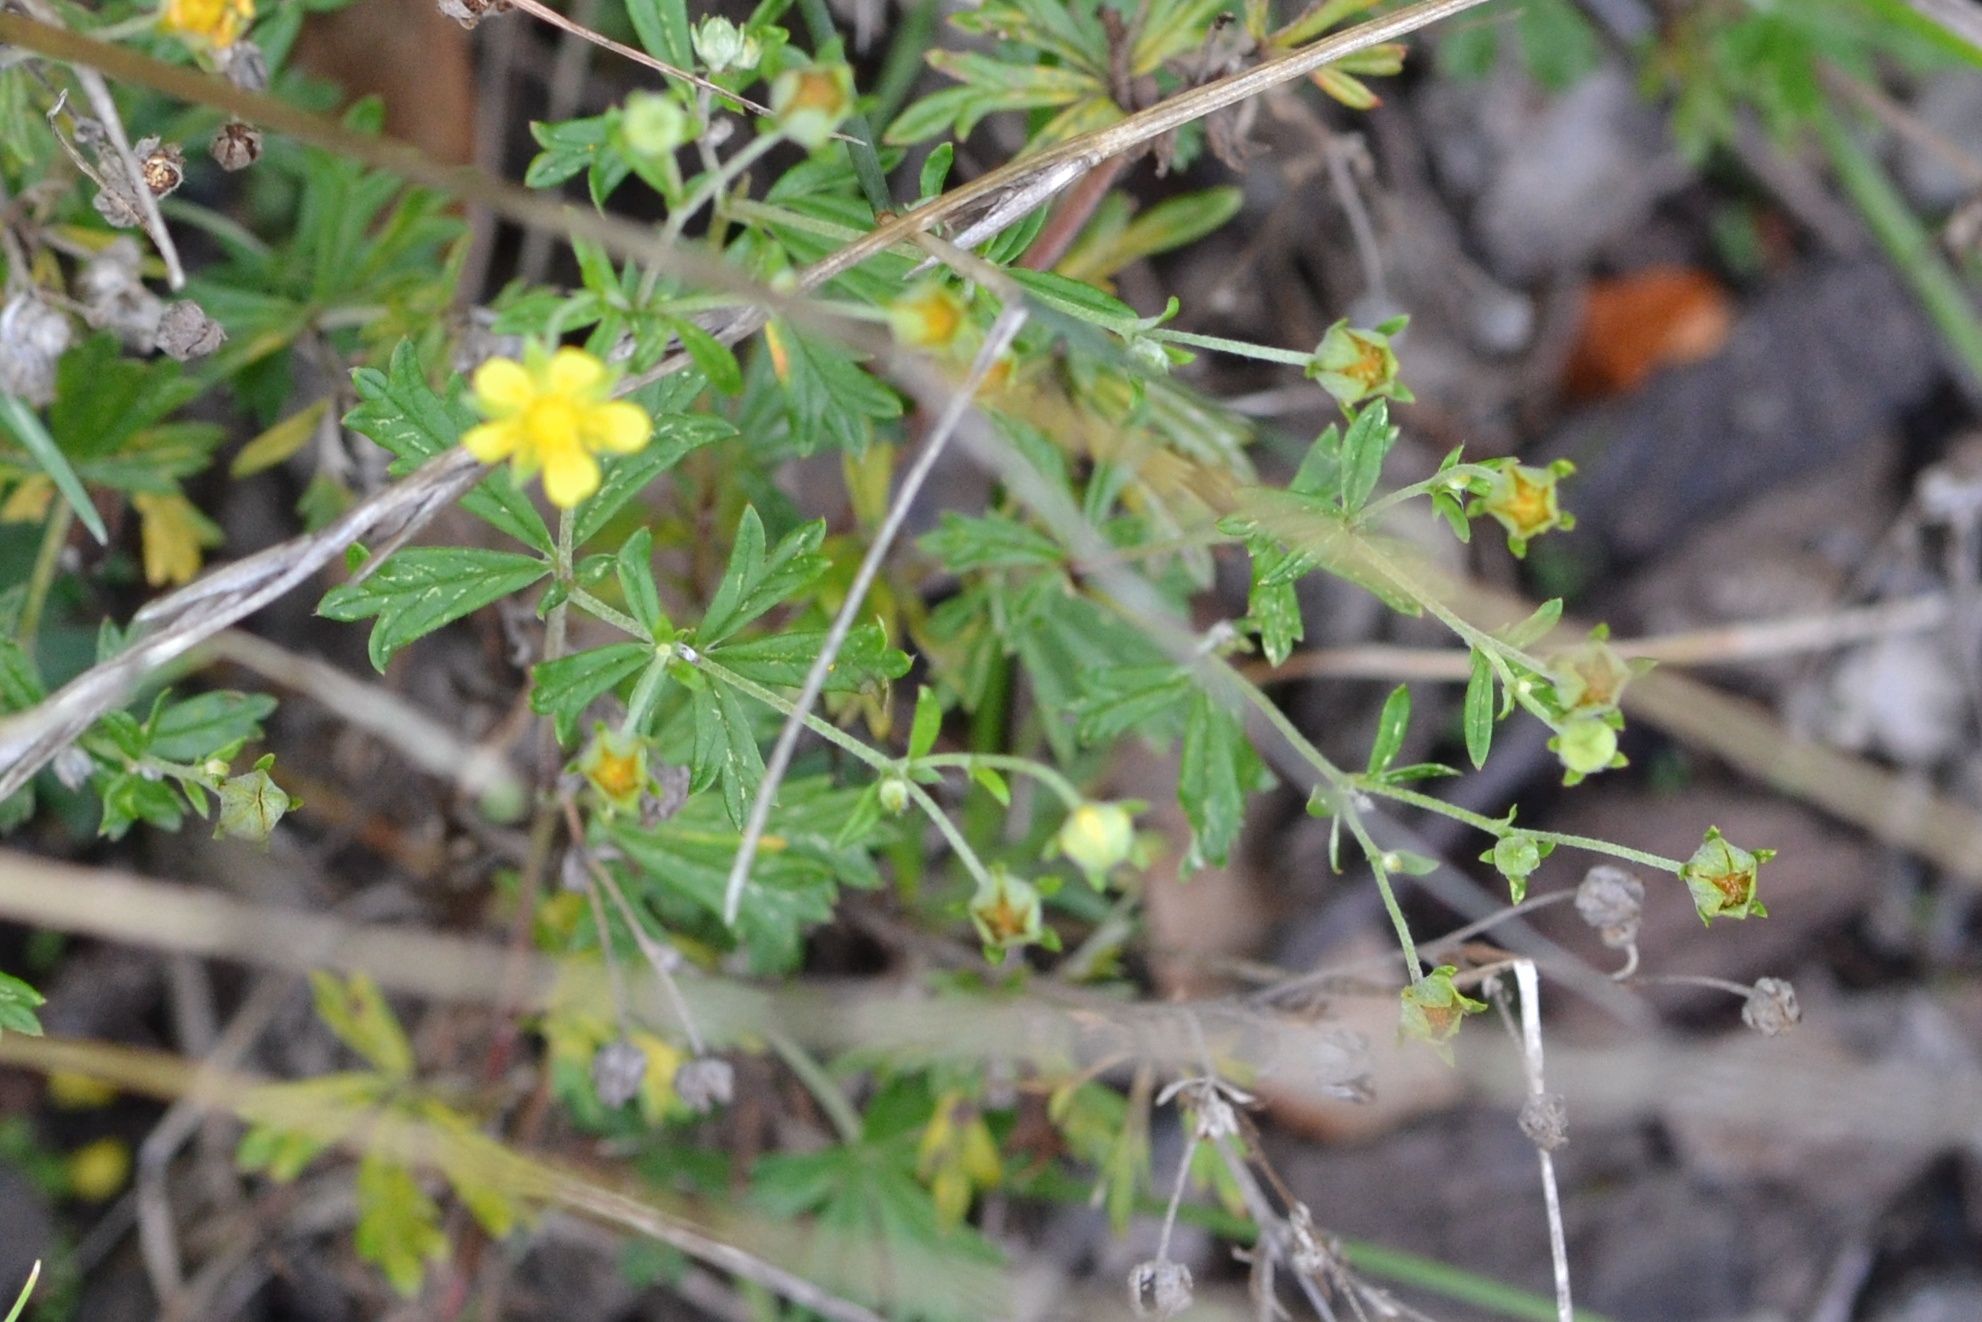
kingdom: Plantae
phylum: Tracheophyta
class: Magnoliopsida
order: Rosales
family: Rosaceae
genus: Potentilla
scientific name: Potentilla argentea
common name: Hoary cinquefoil
